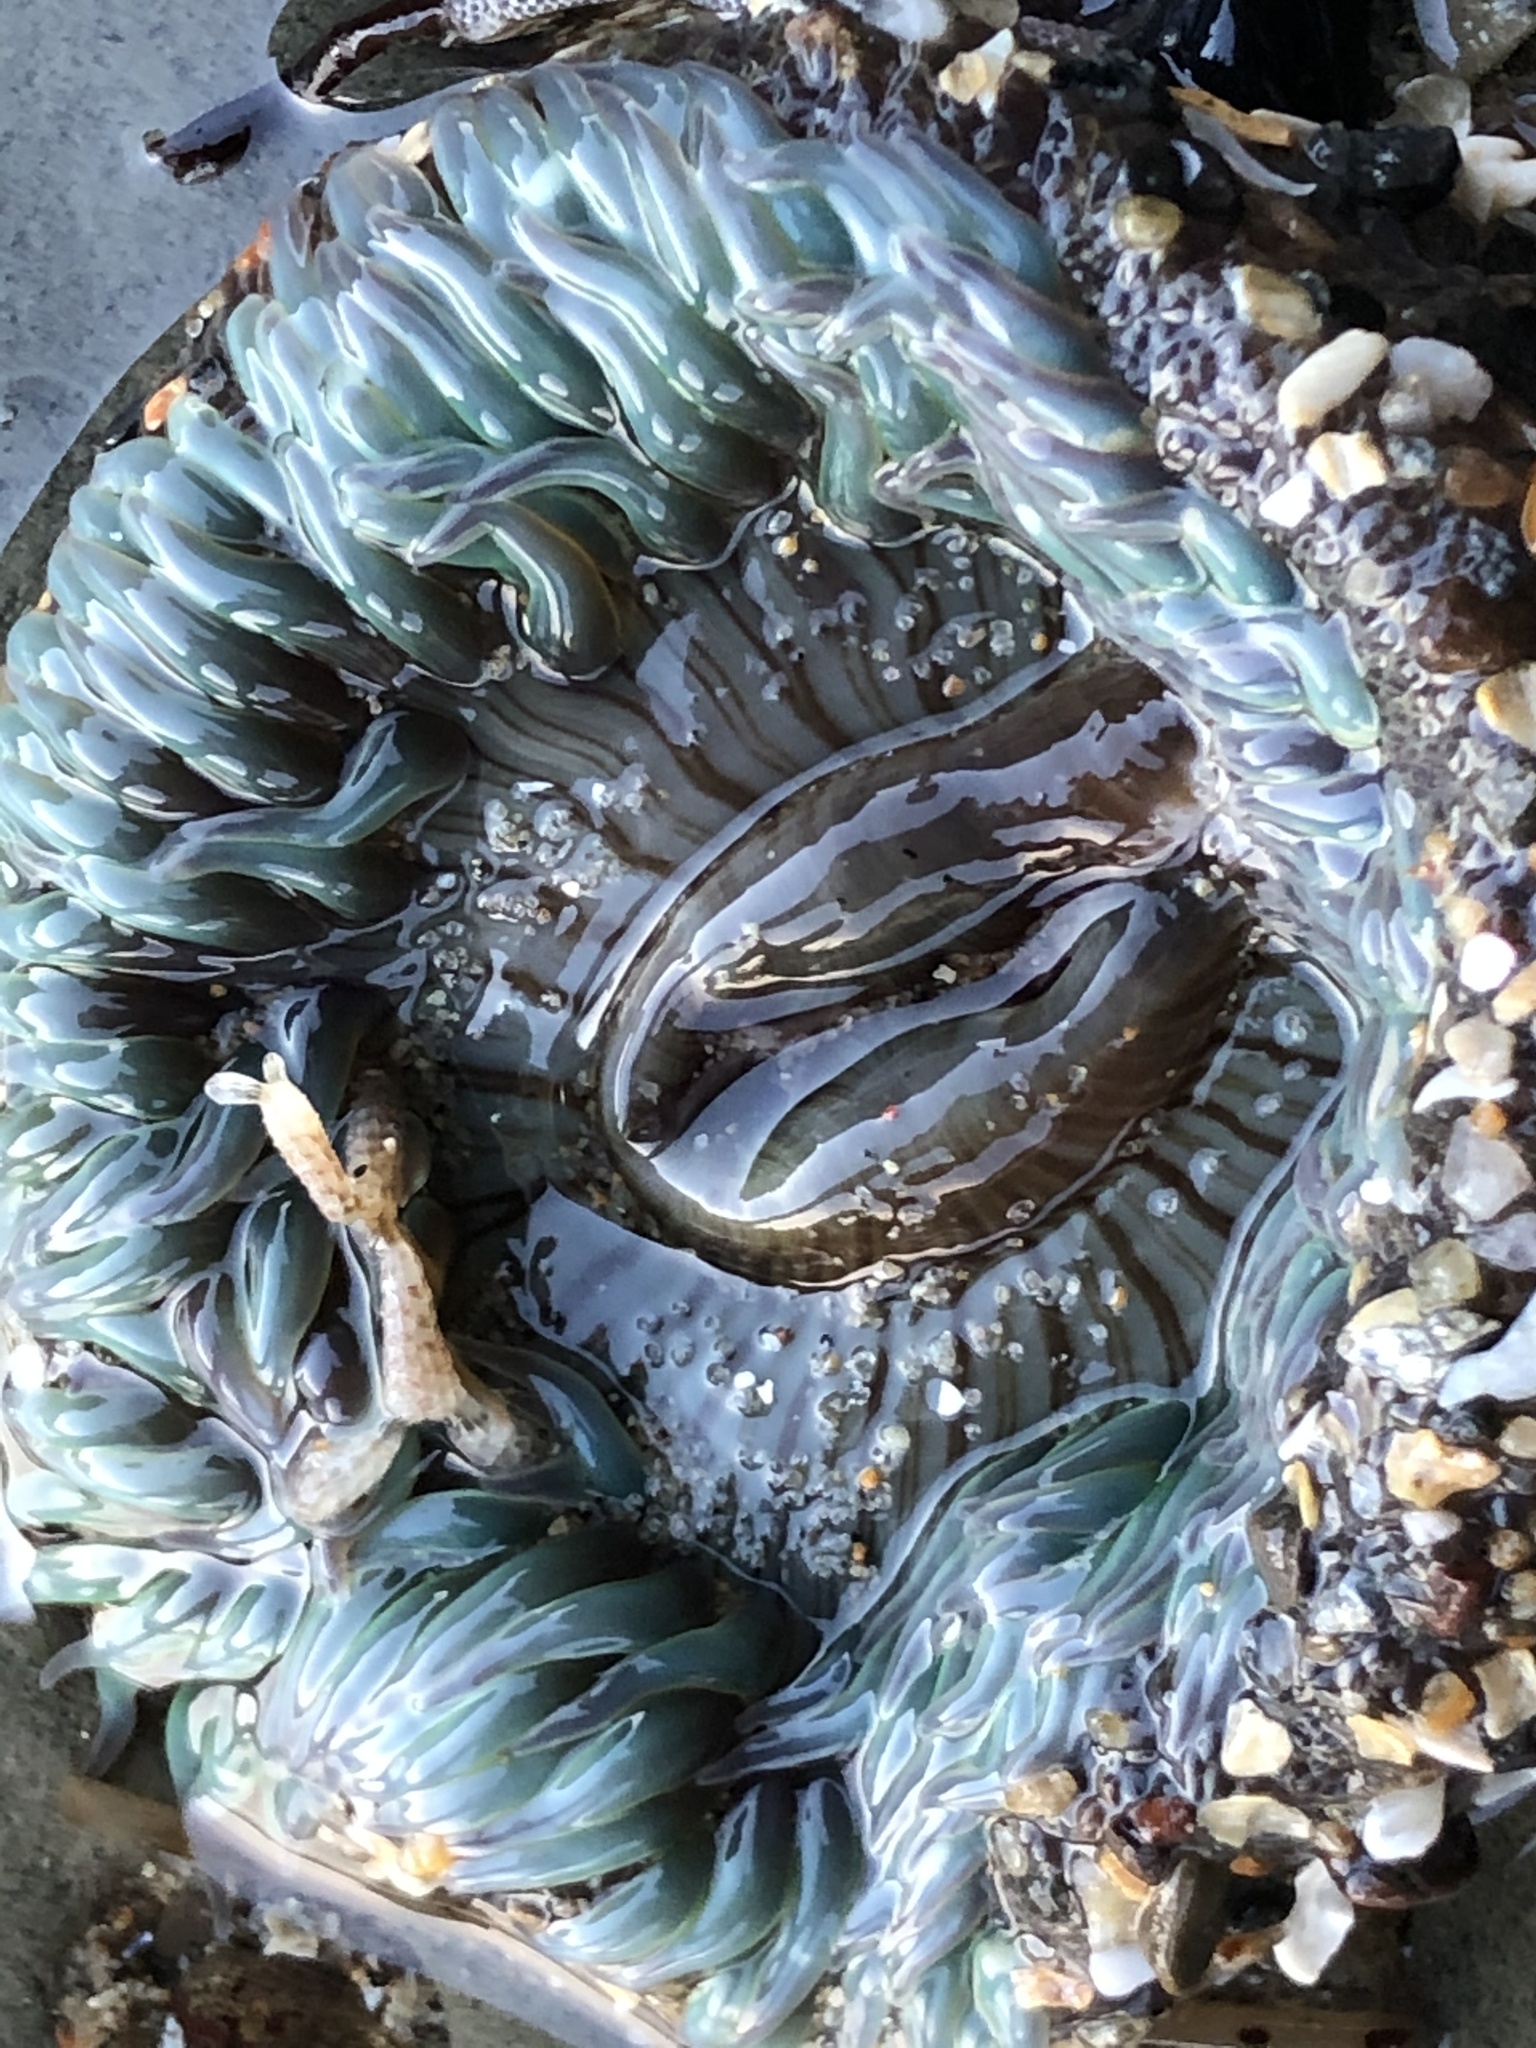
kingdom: Animalia
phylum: Cnidaria
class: Anthozoa
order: Actiniaria
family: Actiniidae
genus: Anthopleura
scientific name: Anthopleura sola
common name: Sun anemone
